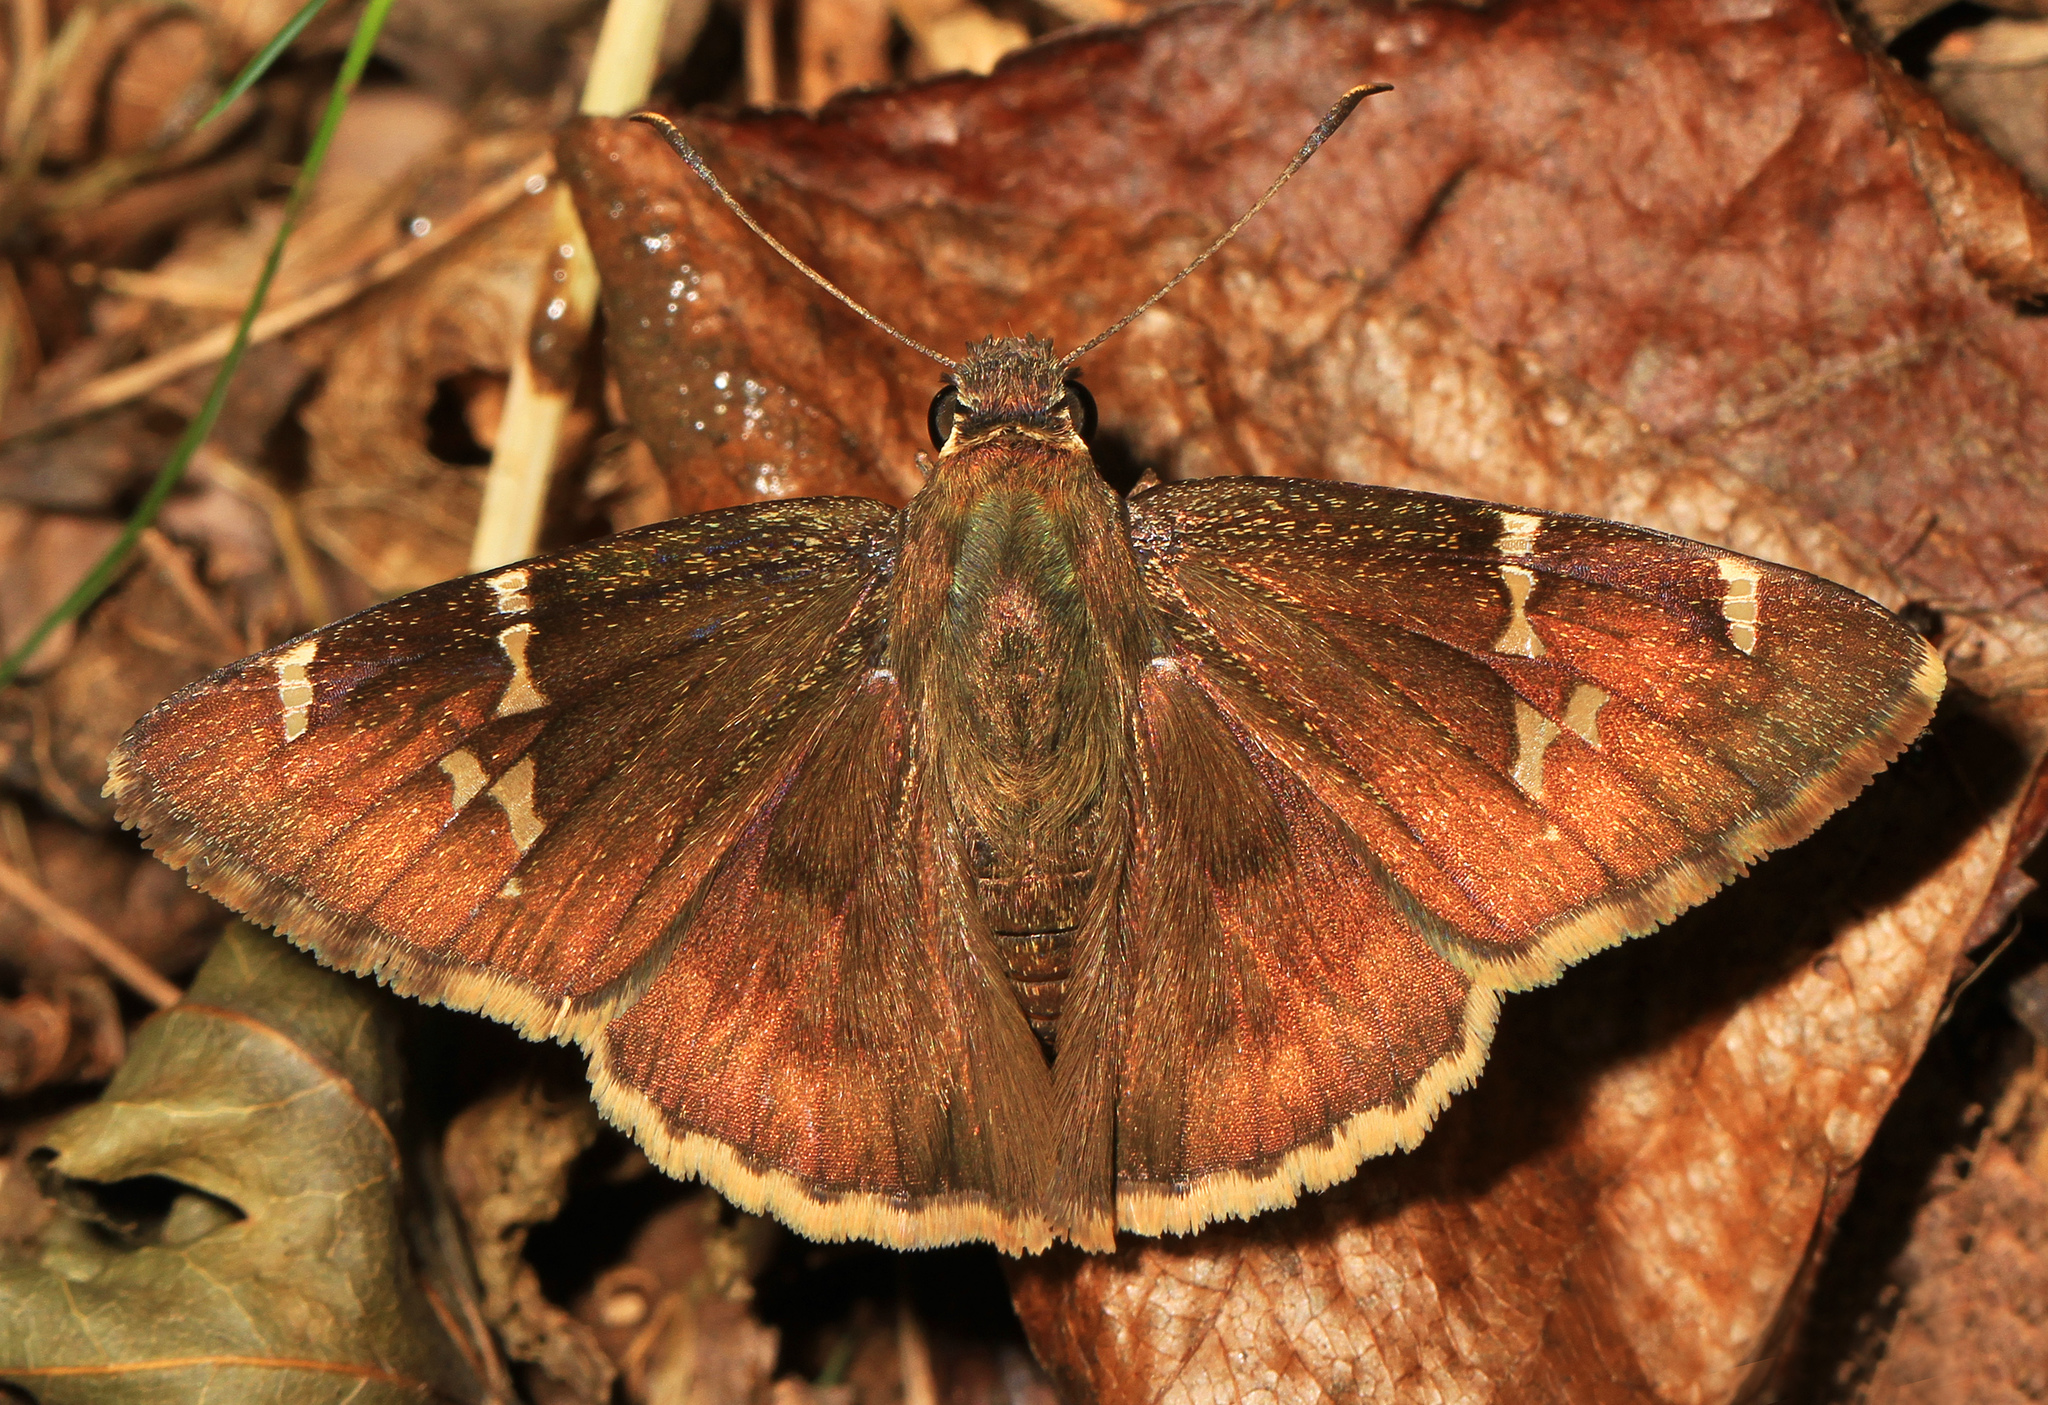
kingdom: Animalia
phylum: Arthropoda
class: Insecta
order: Lepidoptera
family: Hesperiidae
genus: Thorybes
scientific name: Thorybes daunus
